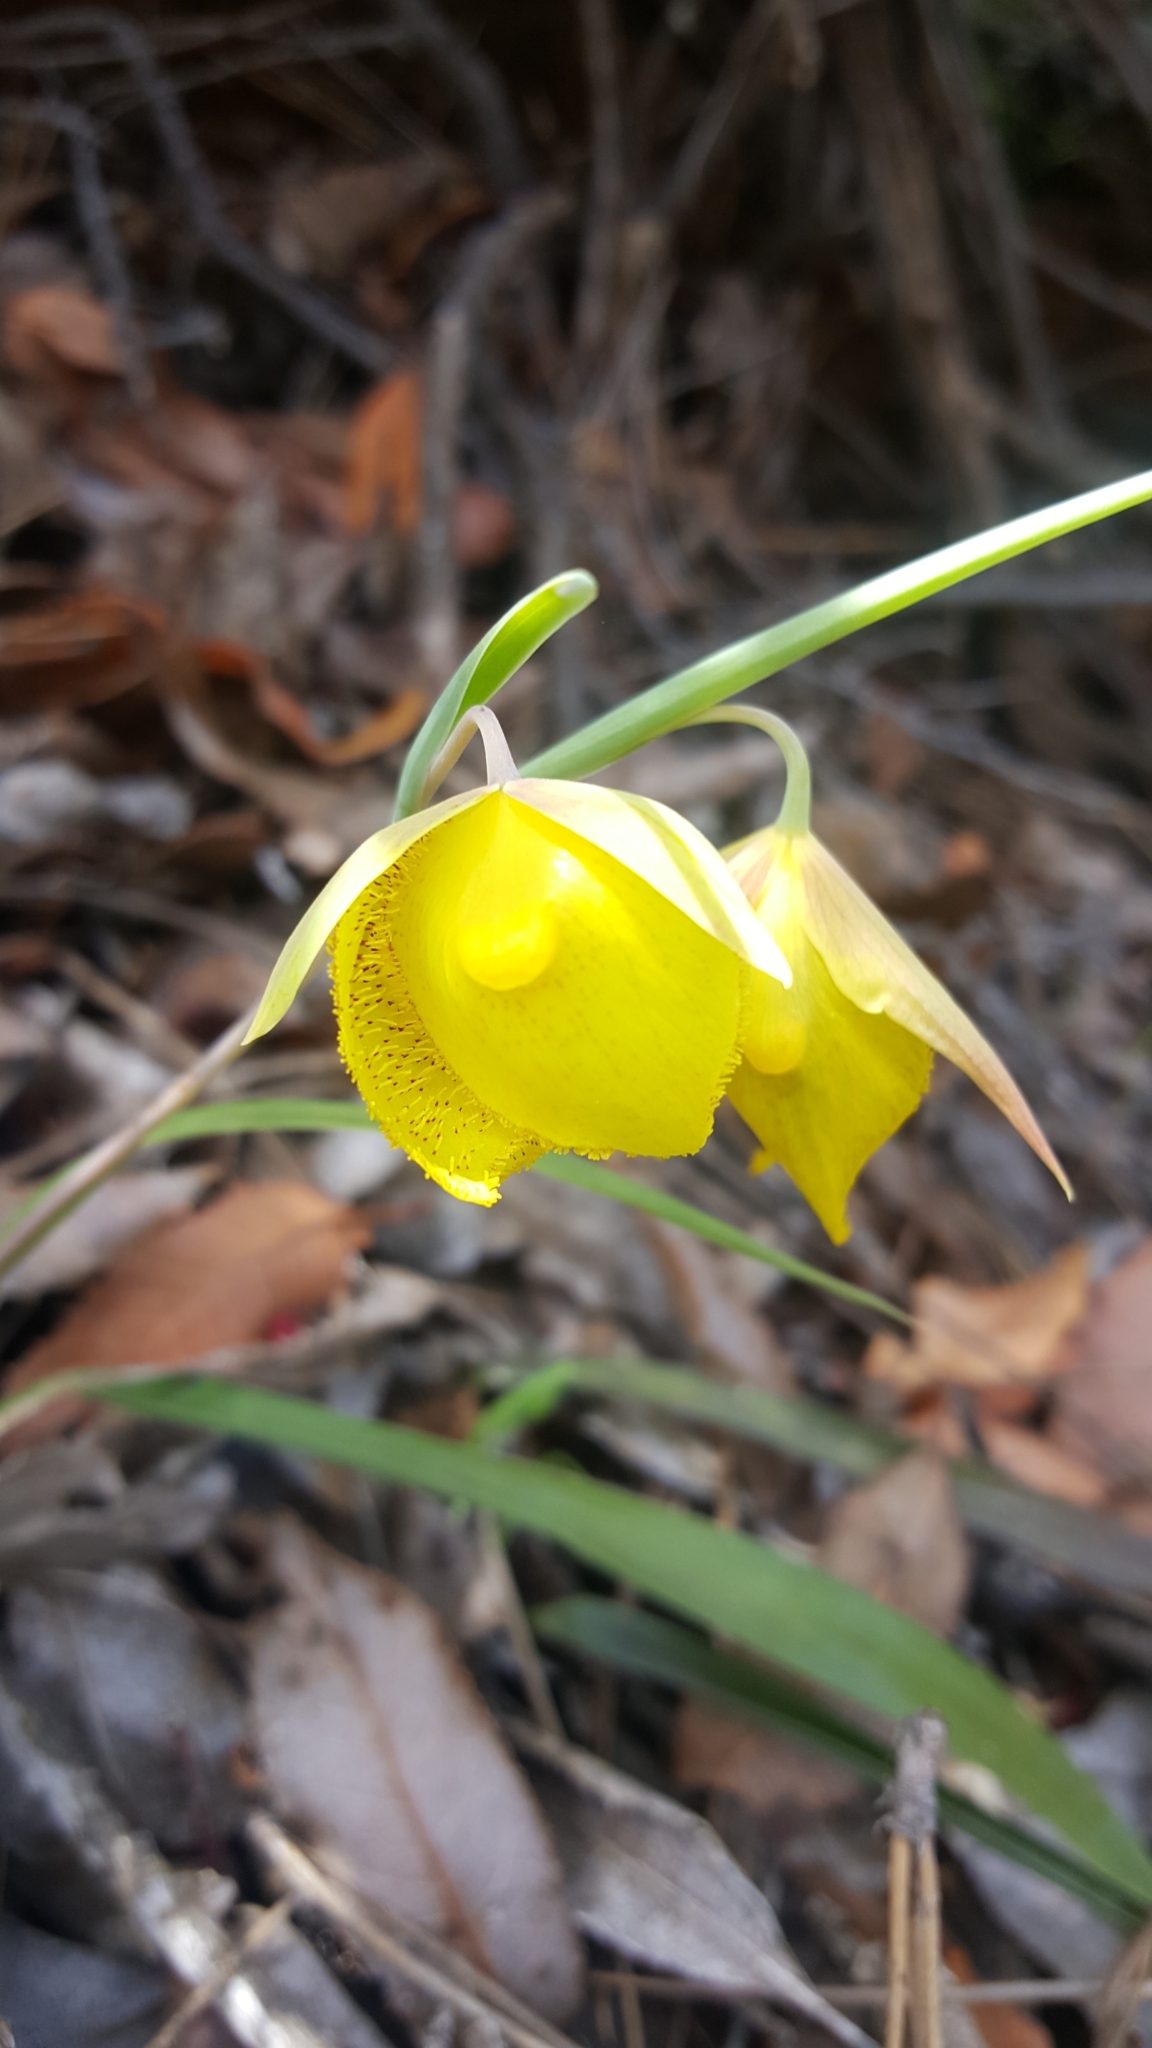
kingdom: Plantae
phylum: Tracheophyta
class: Liliopsida
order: Liliales
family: Liliaceae
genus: Calochortus
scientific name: Calochortus pulchellus
